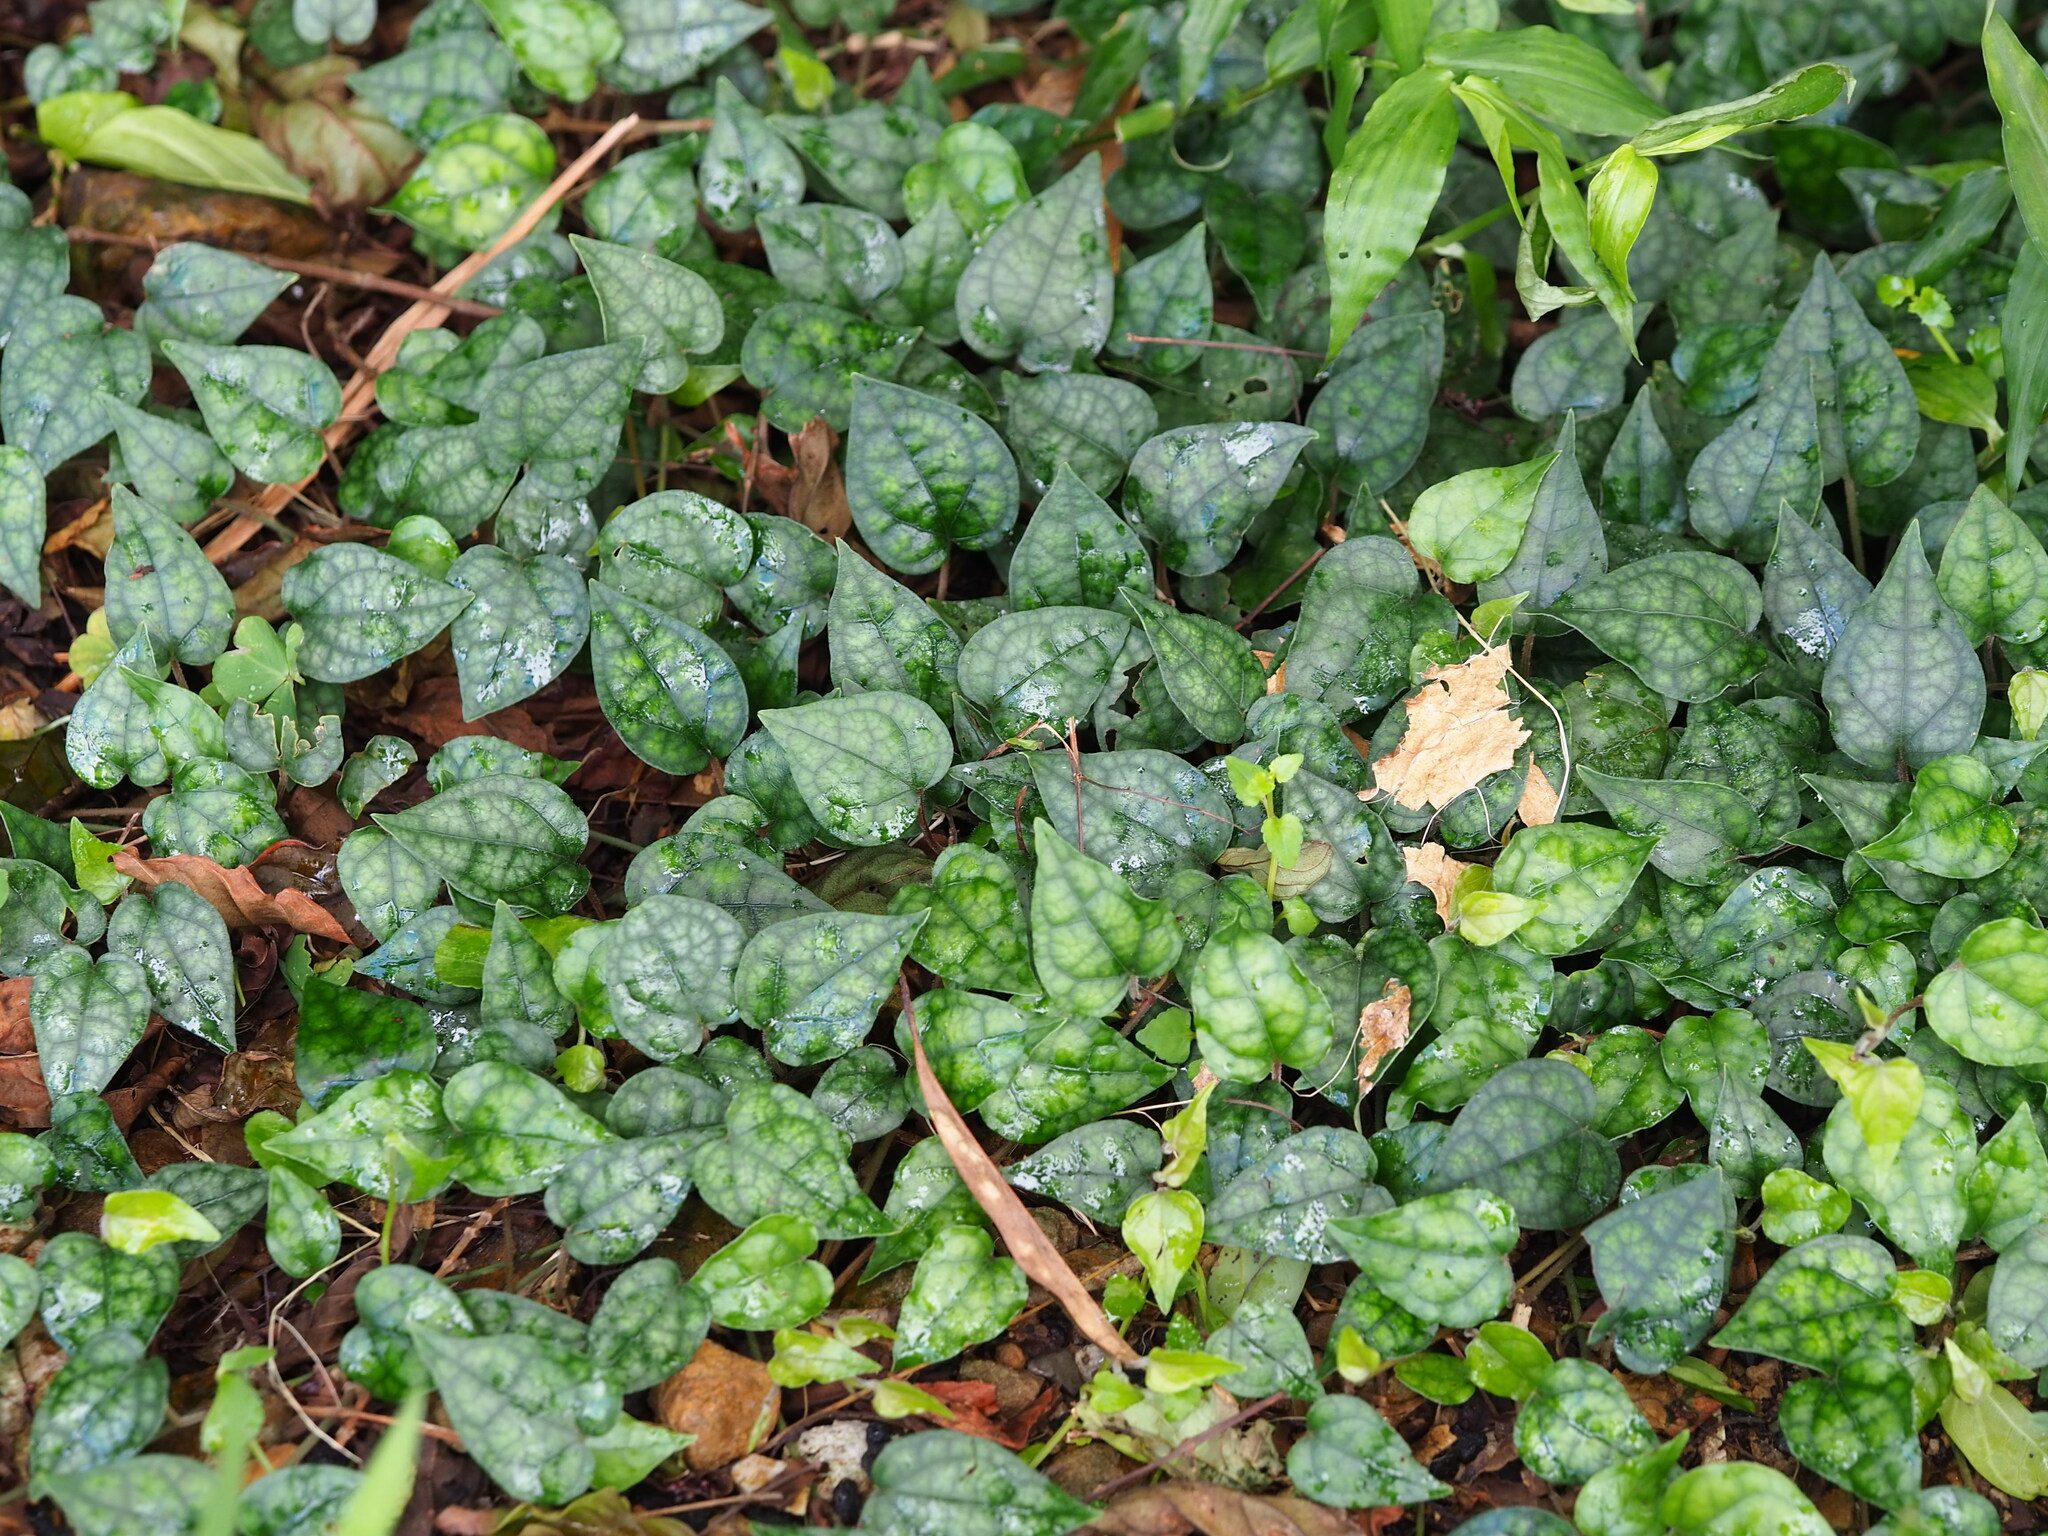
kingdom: Plantae
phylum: Tracheophyta
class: Magnoliopsida
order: Piperales
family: Piperaceae
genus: Piper
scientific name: Piper kadsura
